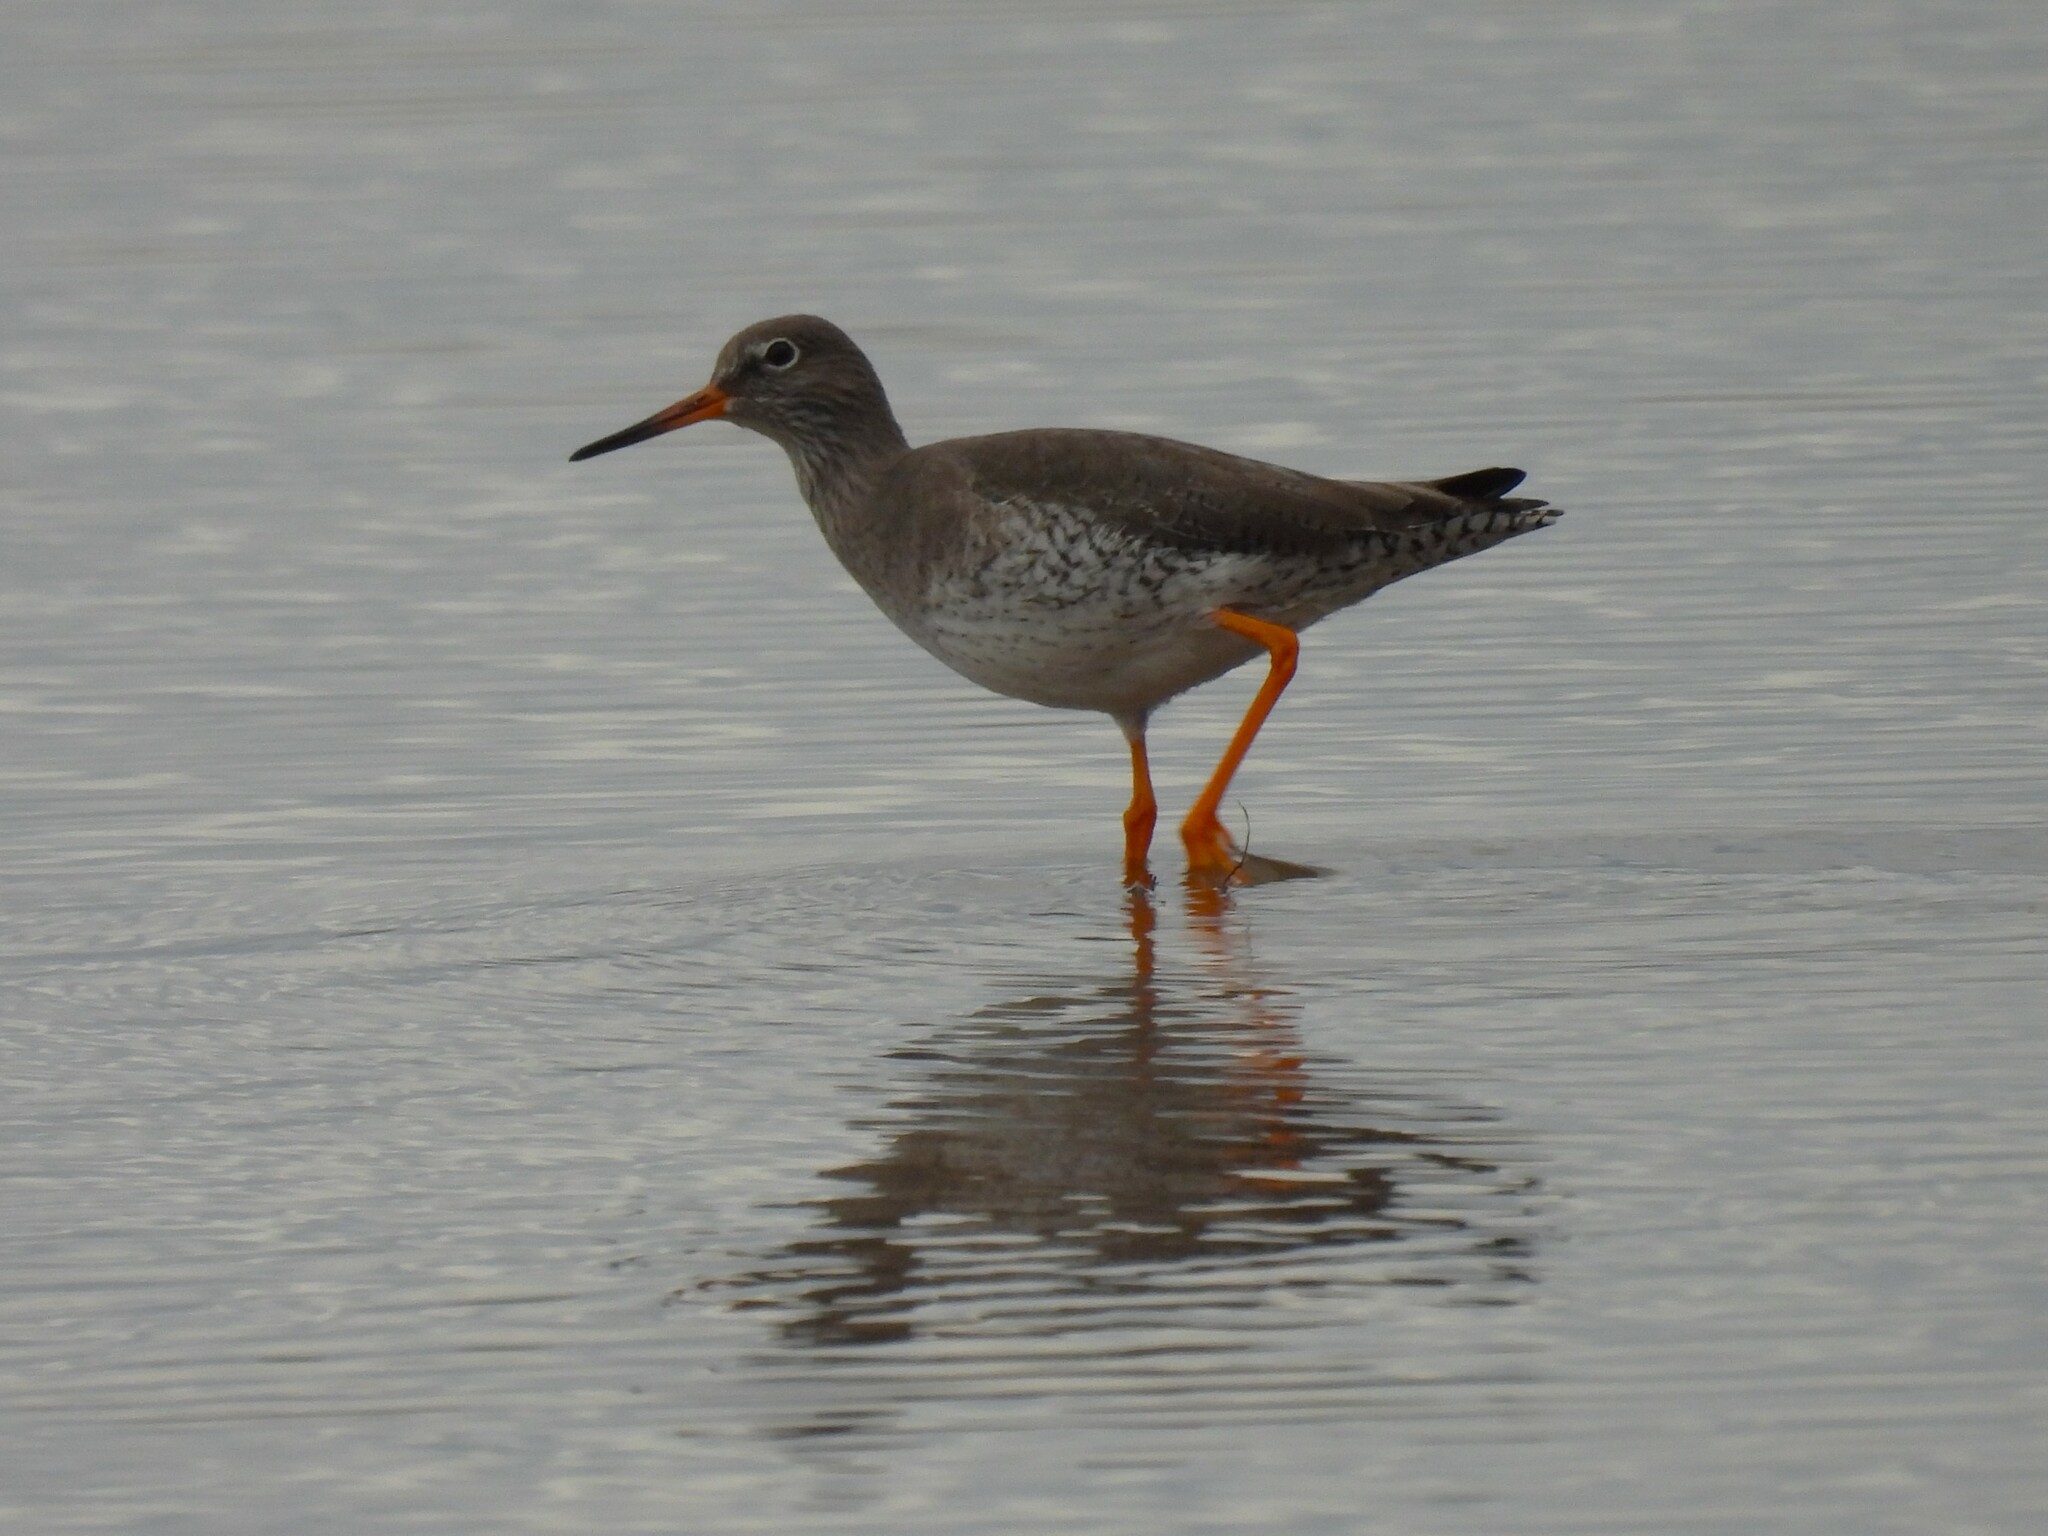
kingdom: Animalia
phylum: Chordata
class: Aves
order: Charadriiformes
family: Scolopacidae
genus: Tringa
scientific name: Tringa totanus
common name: Common redshank
